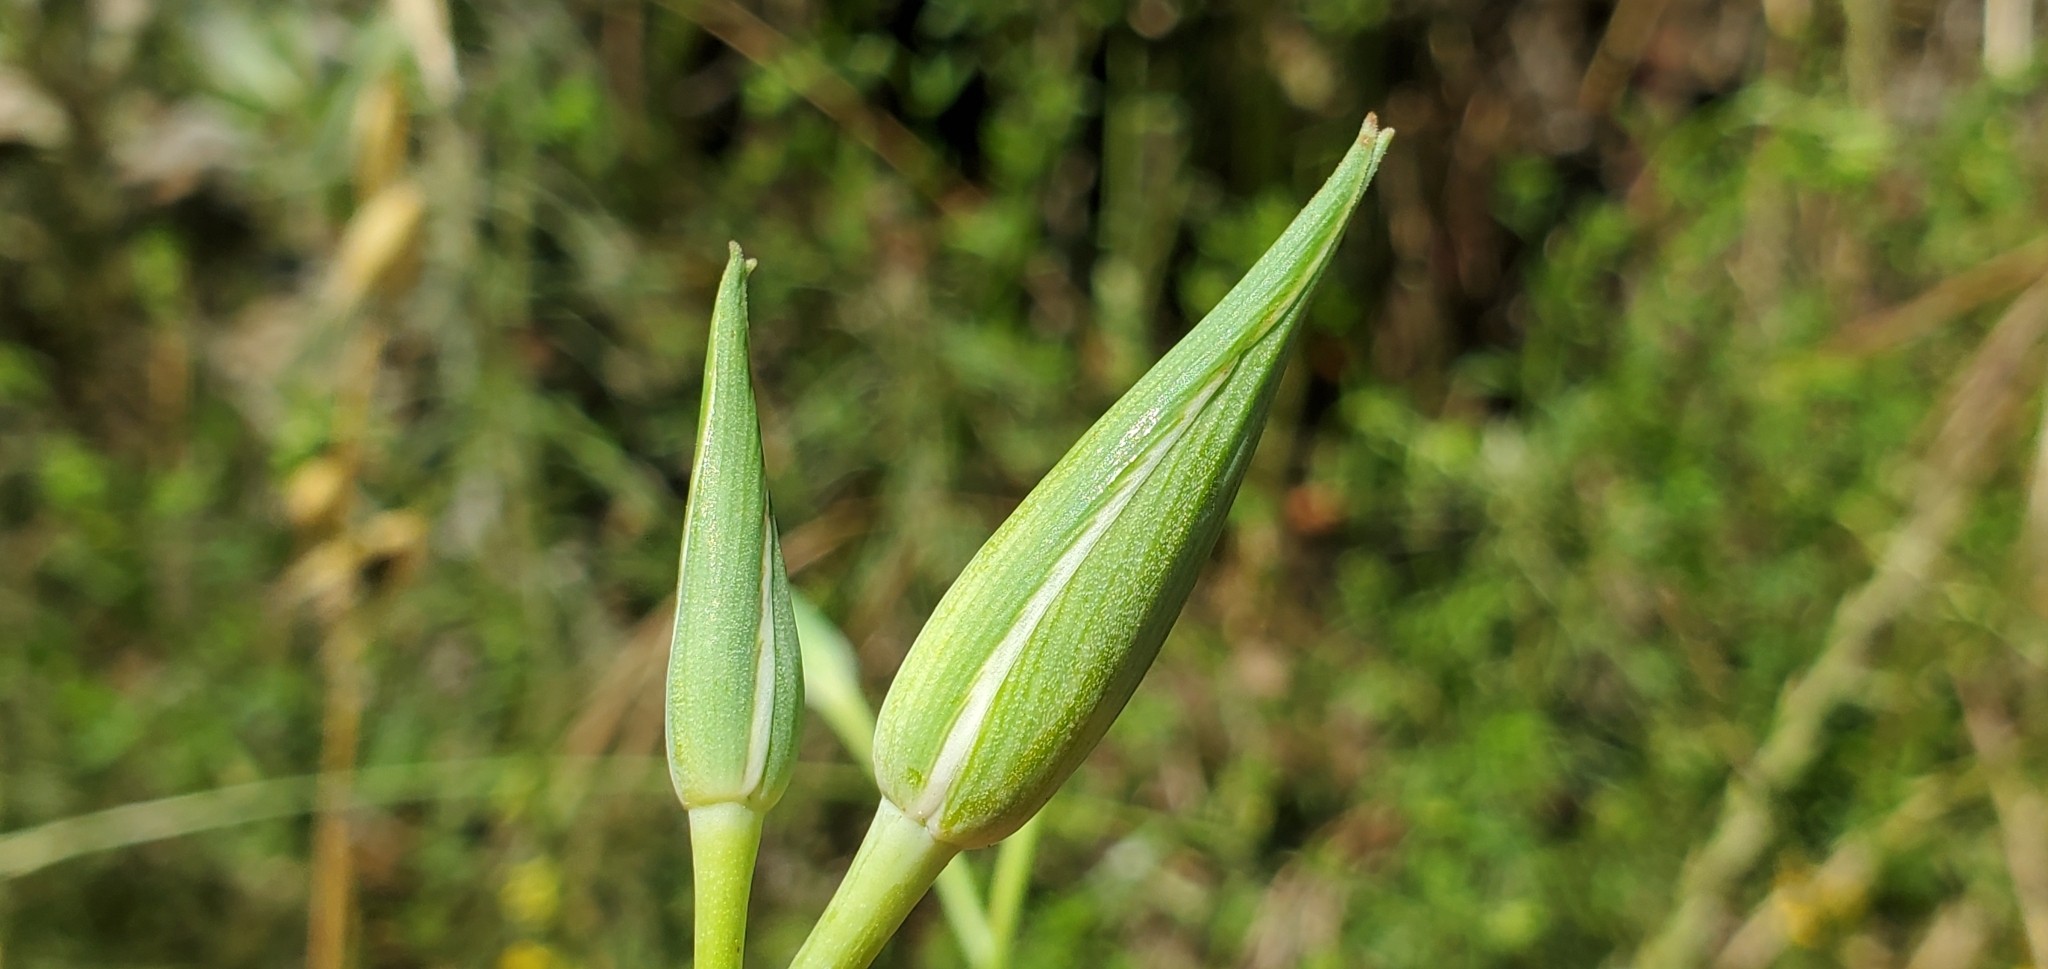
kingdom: Plantae
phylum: Tracheophyta
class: Liliopsida
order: Liliales
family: Liliaceae
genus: Calochortus
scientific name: Calochortus splendens
